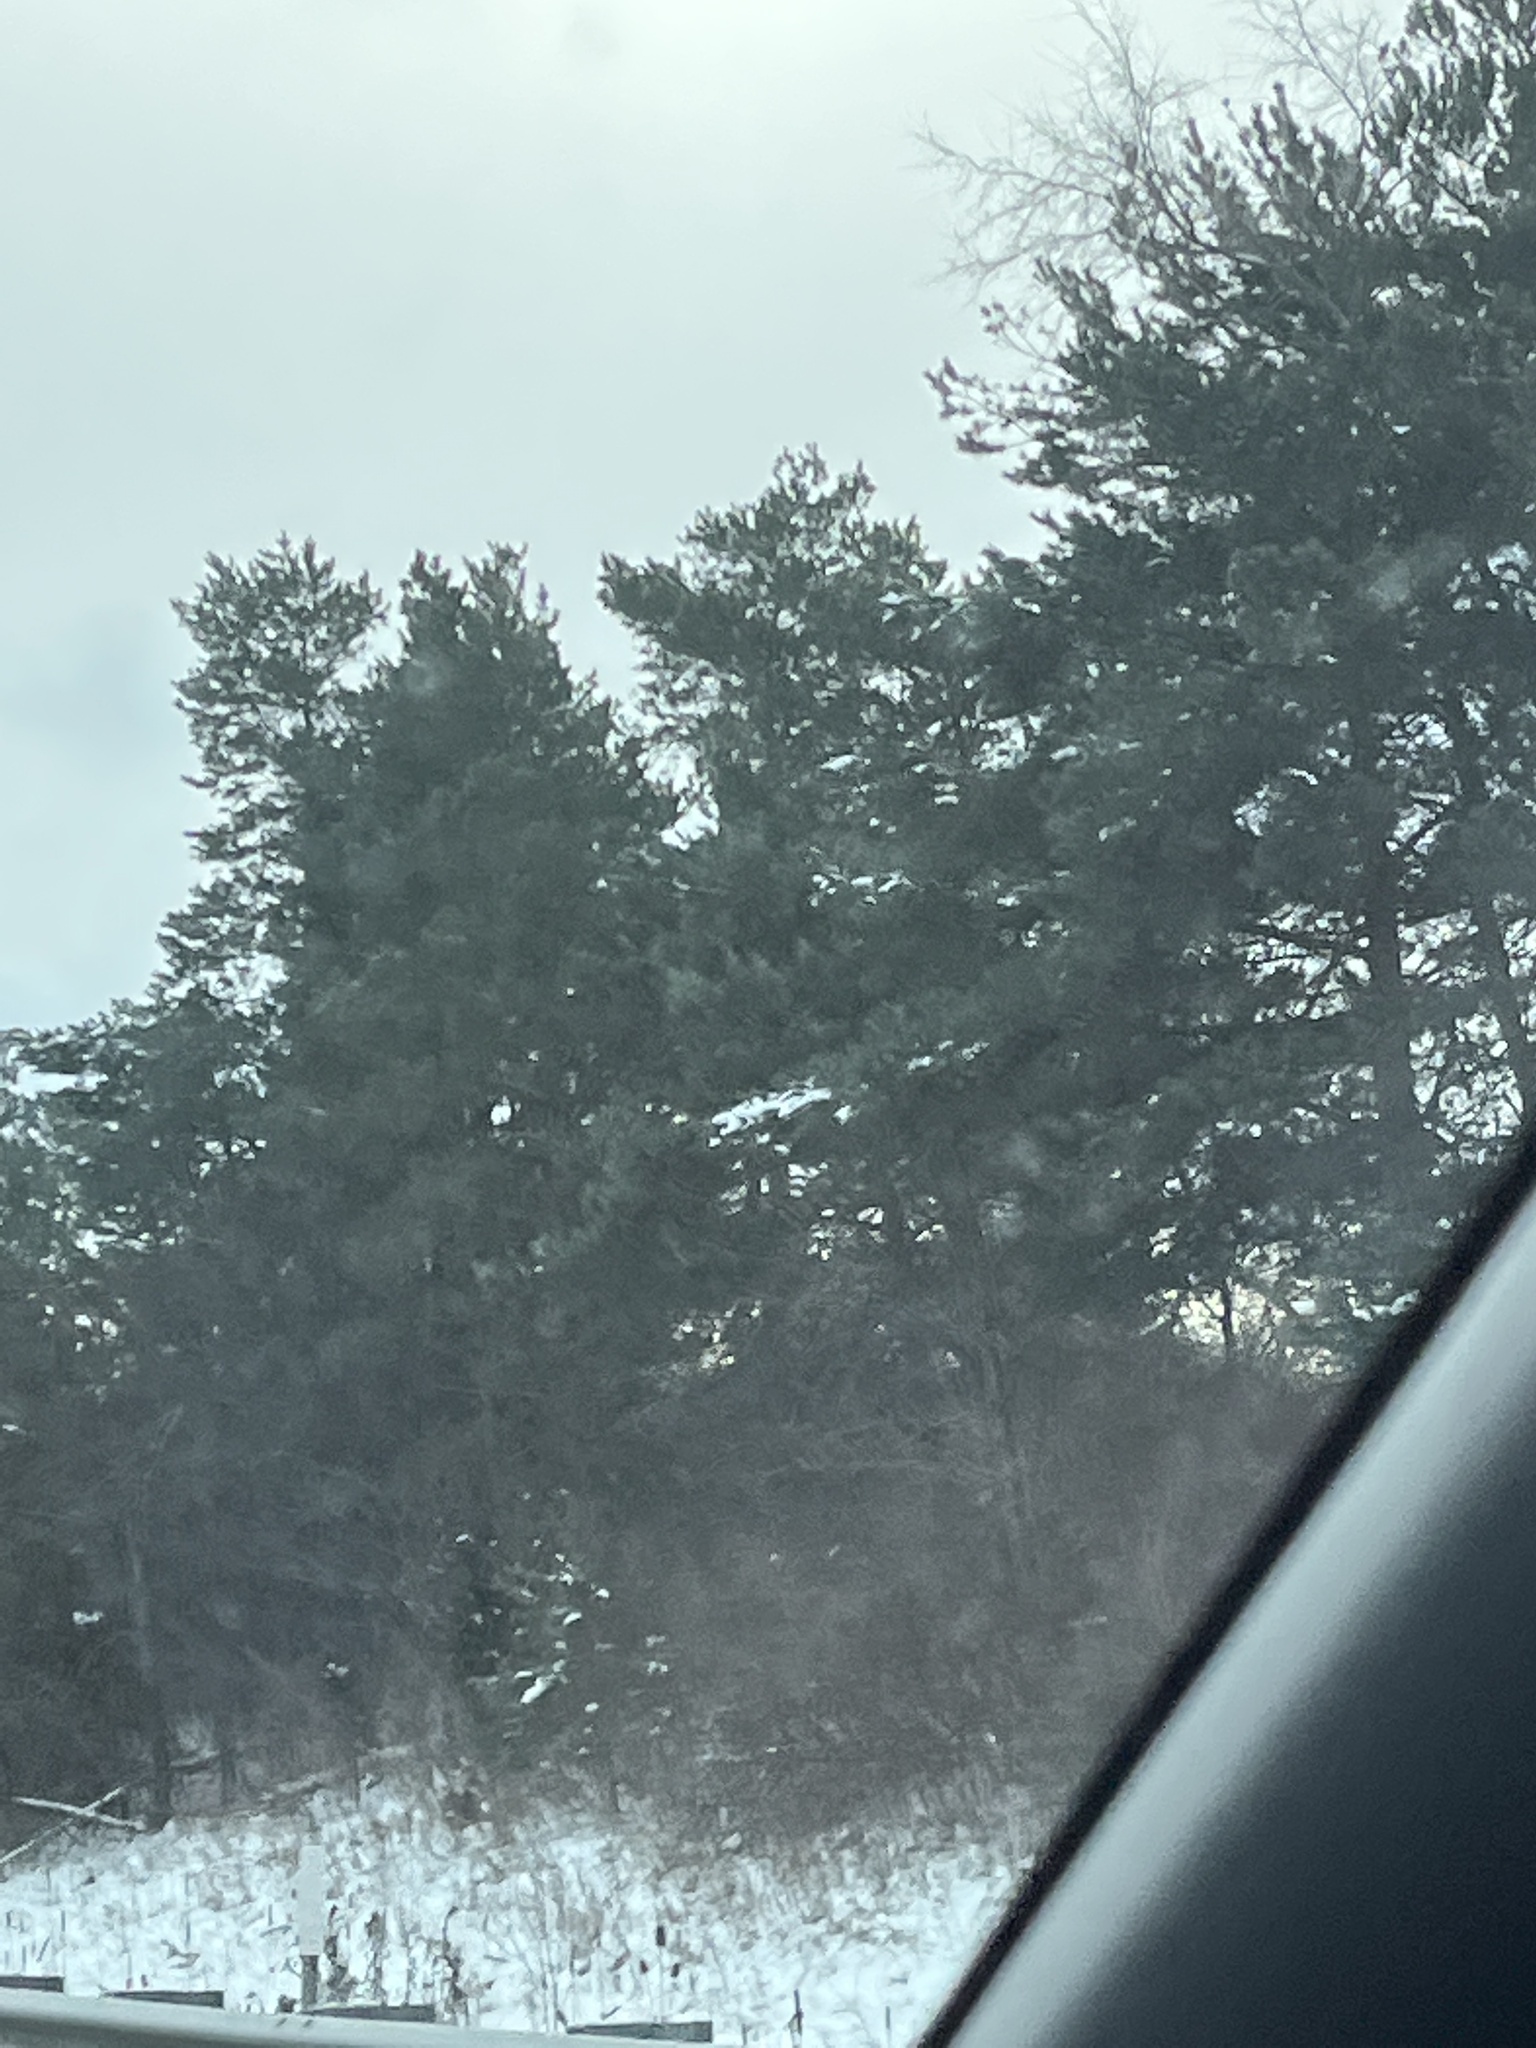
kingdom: Plantae
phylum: Tracheophyta
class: Pinopsida
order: Pinales
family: Pinaceae
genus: Pinus
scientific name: Pinus strobus
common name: Weymouth pine
